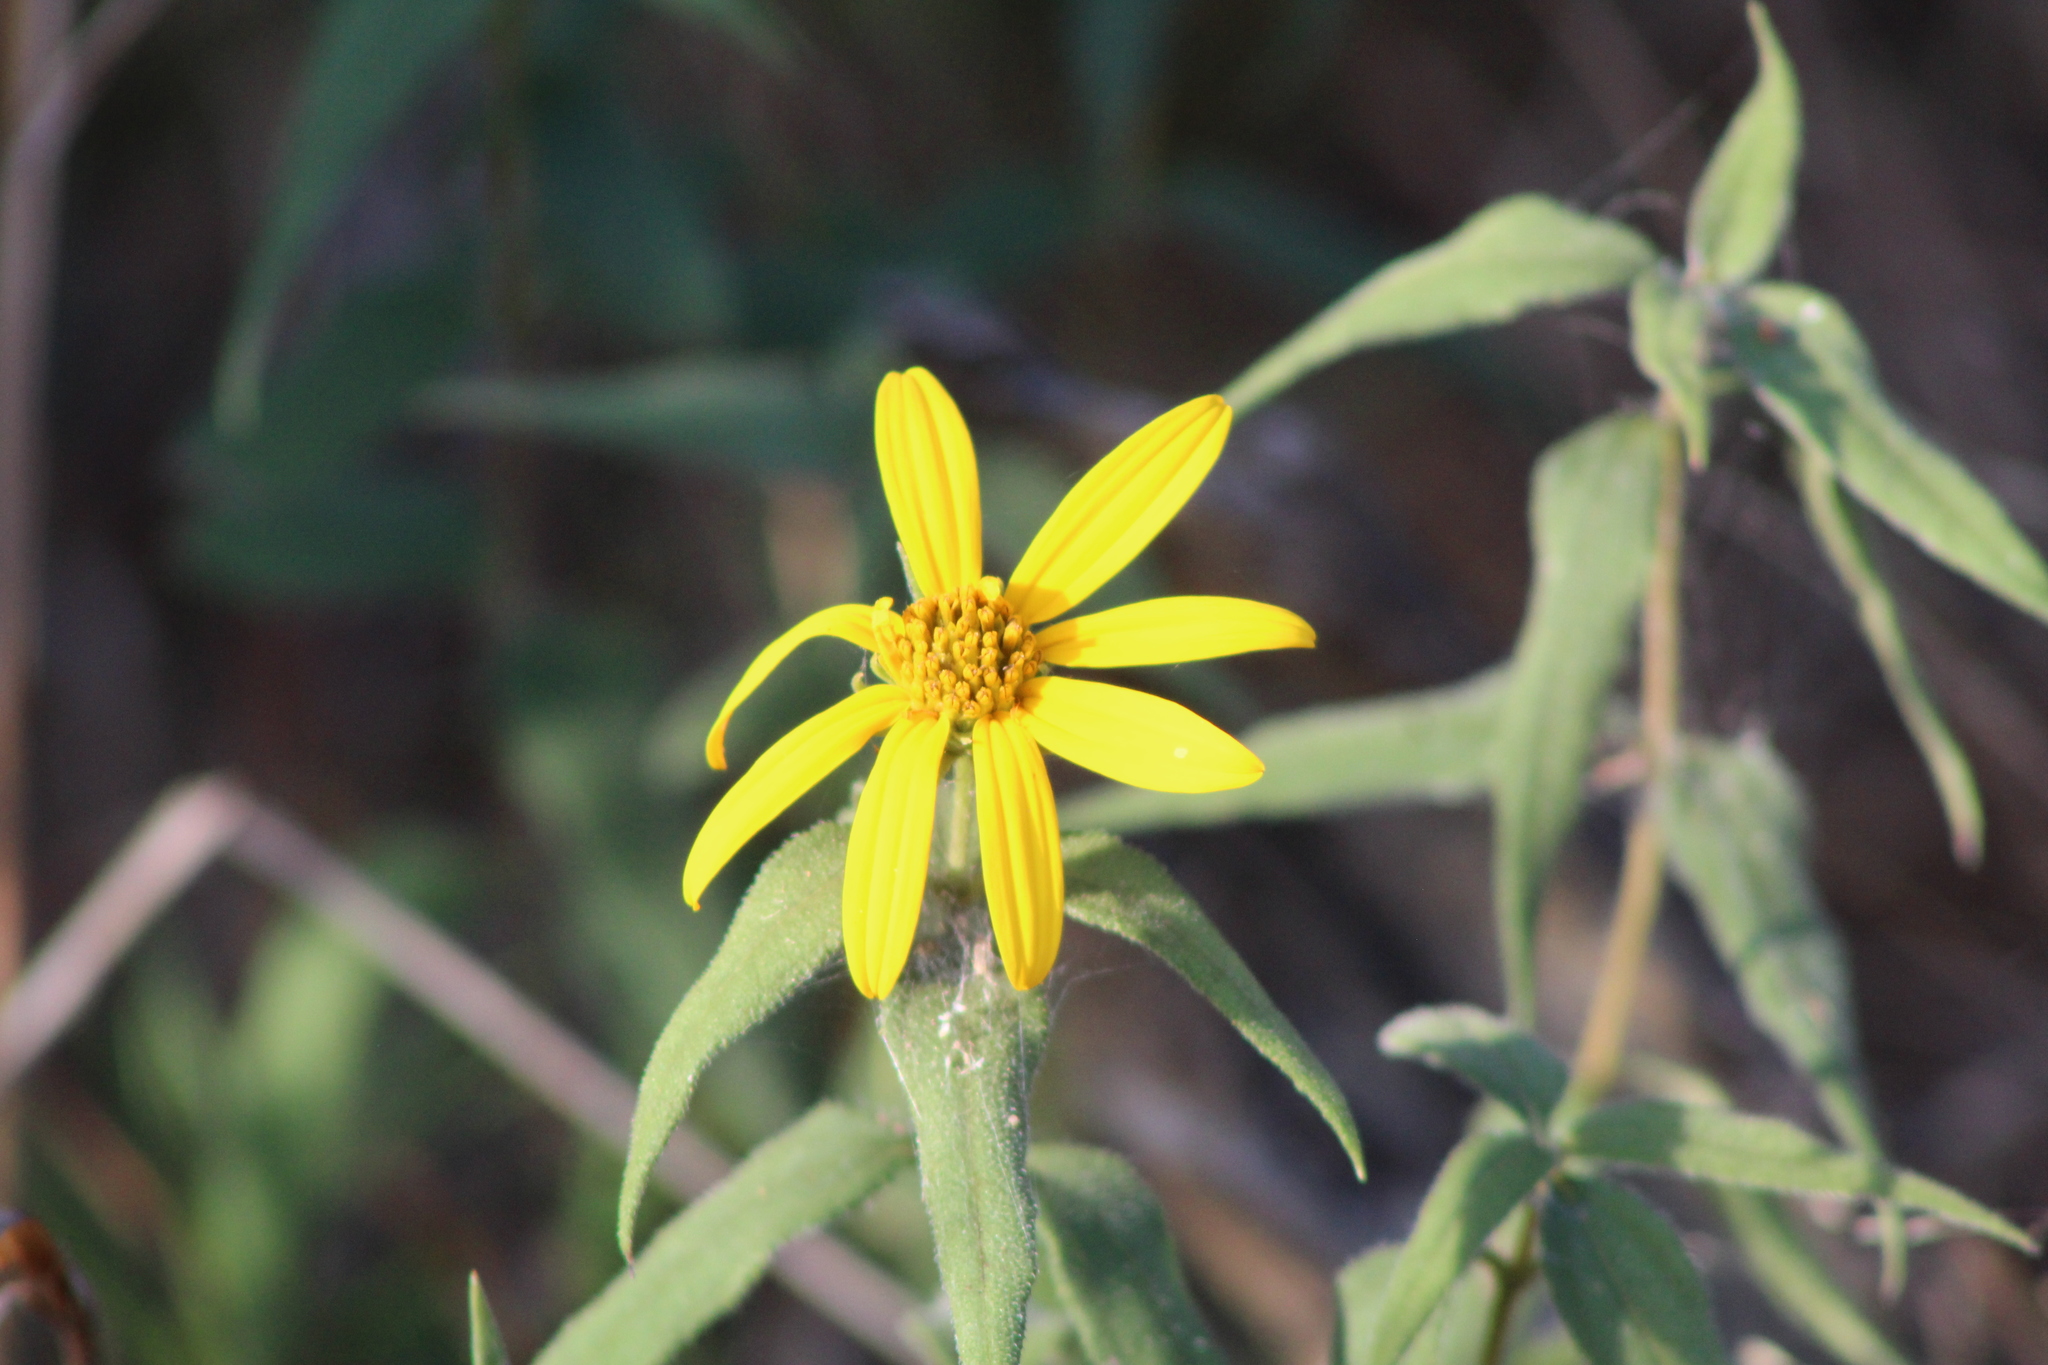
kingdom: Plantae
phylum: Tracheophyta
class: Magnoliopsida
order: Asterales
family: Asteraceae
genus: Helianthus
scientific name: Helianthus hirsutus
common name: Hairy sunflower
